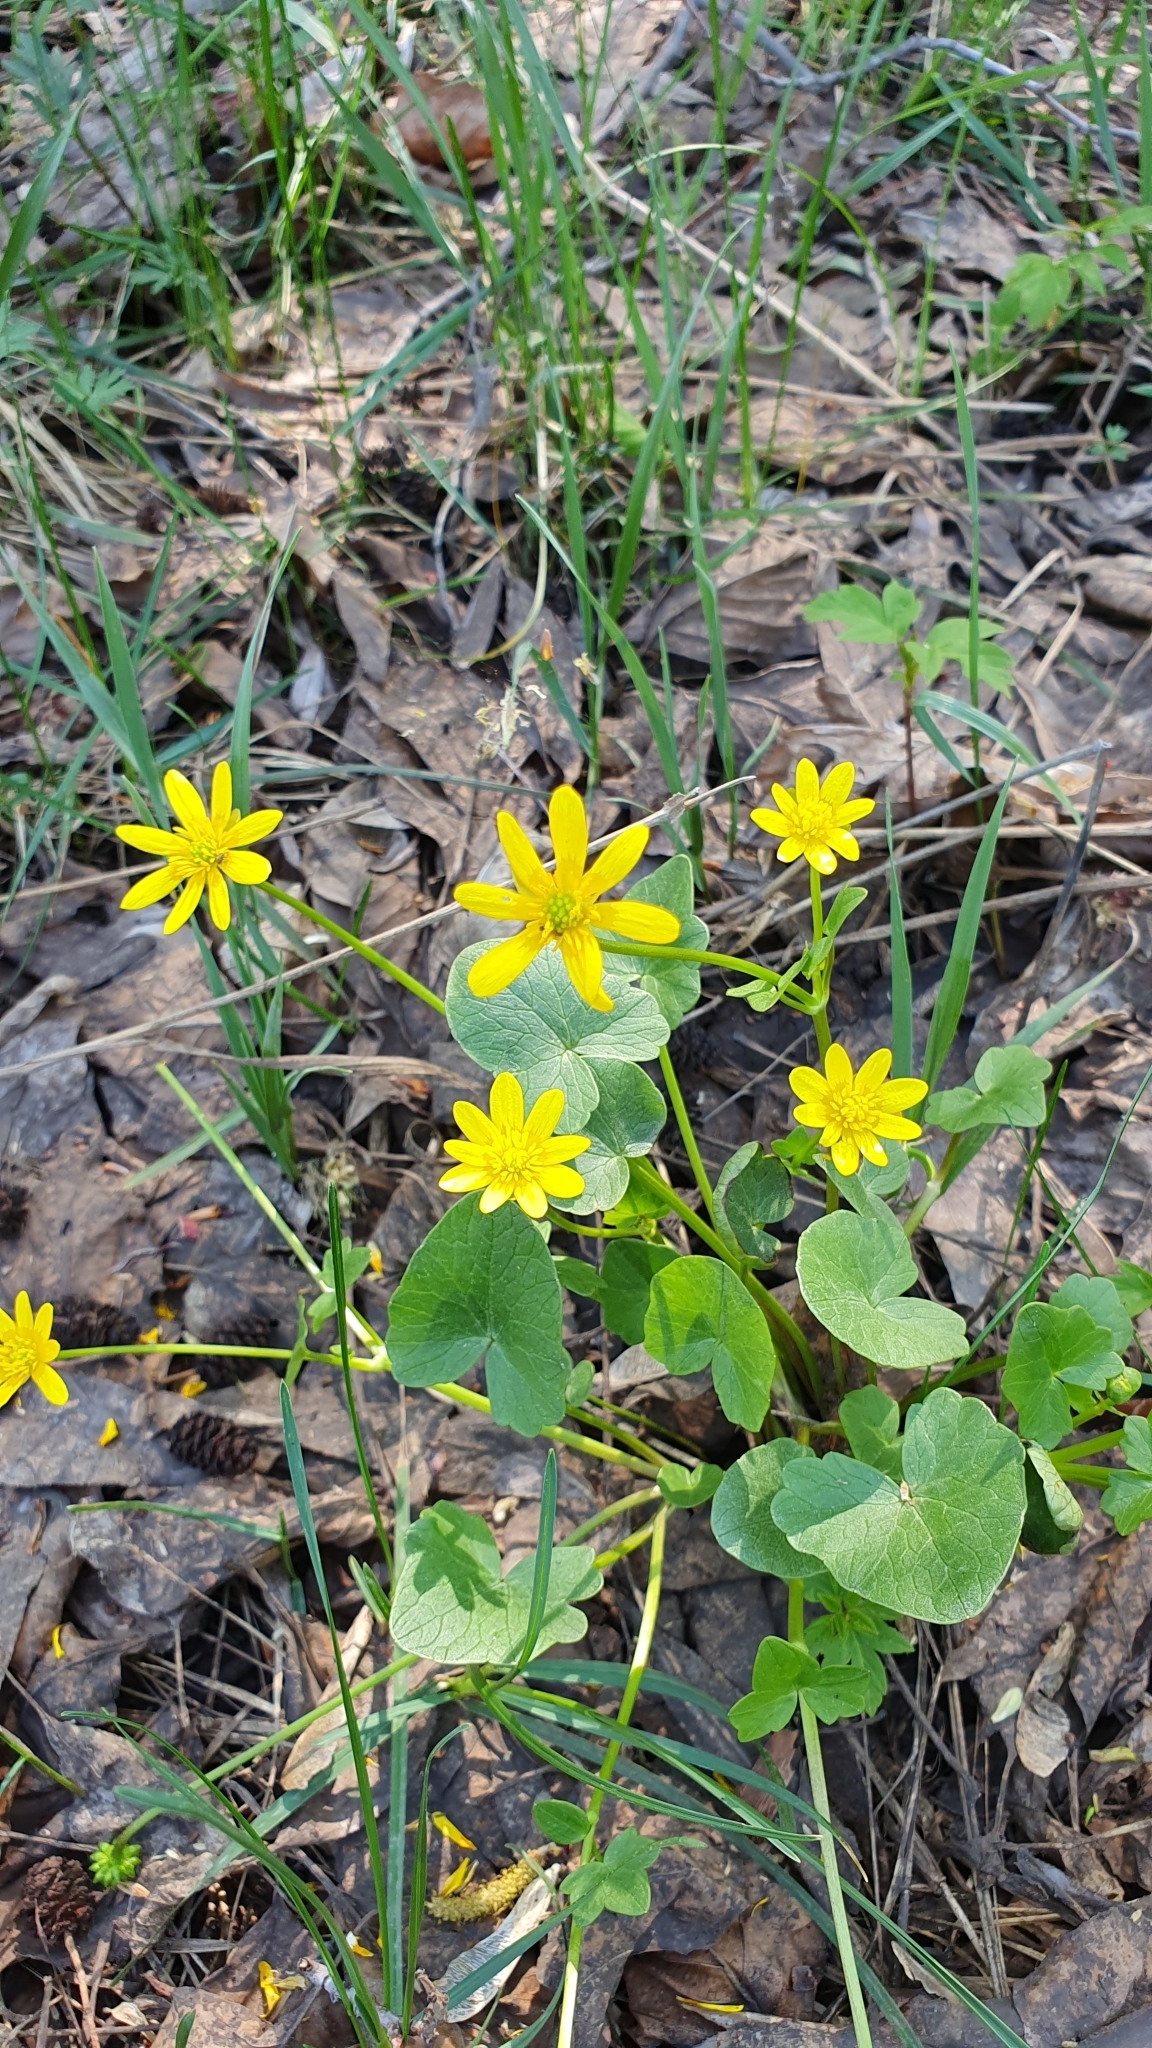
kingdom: Plantae
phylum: Tracheophyta
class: Magnoliopsida
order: Ranunculales
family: Ranunculaceae
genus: Ficaria
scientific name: Ficaria verna
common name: Lesser celandine
